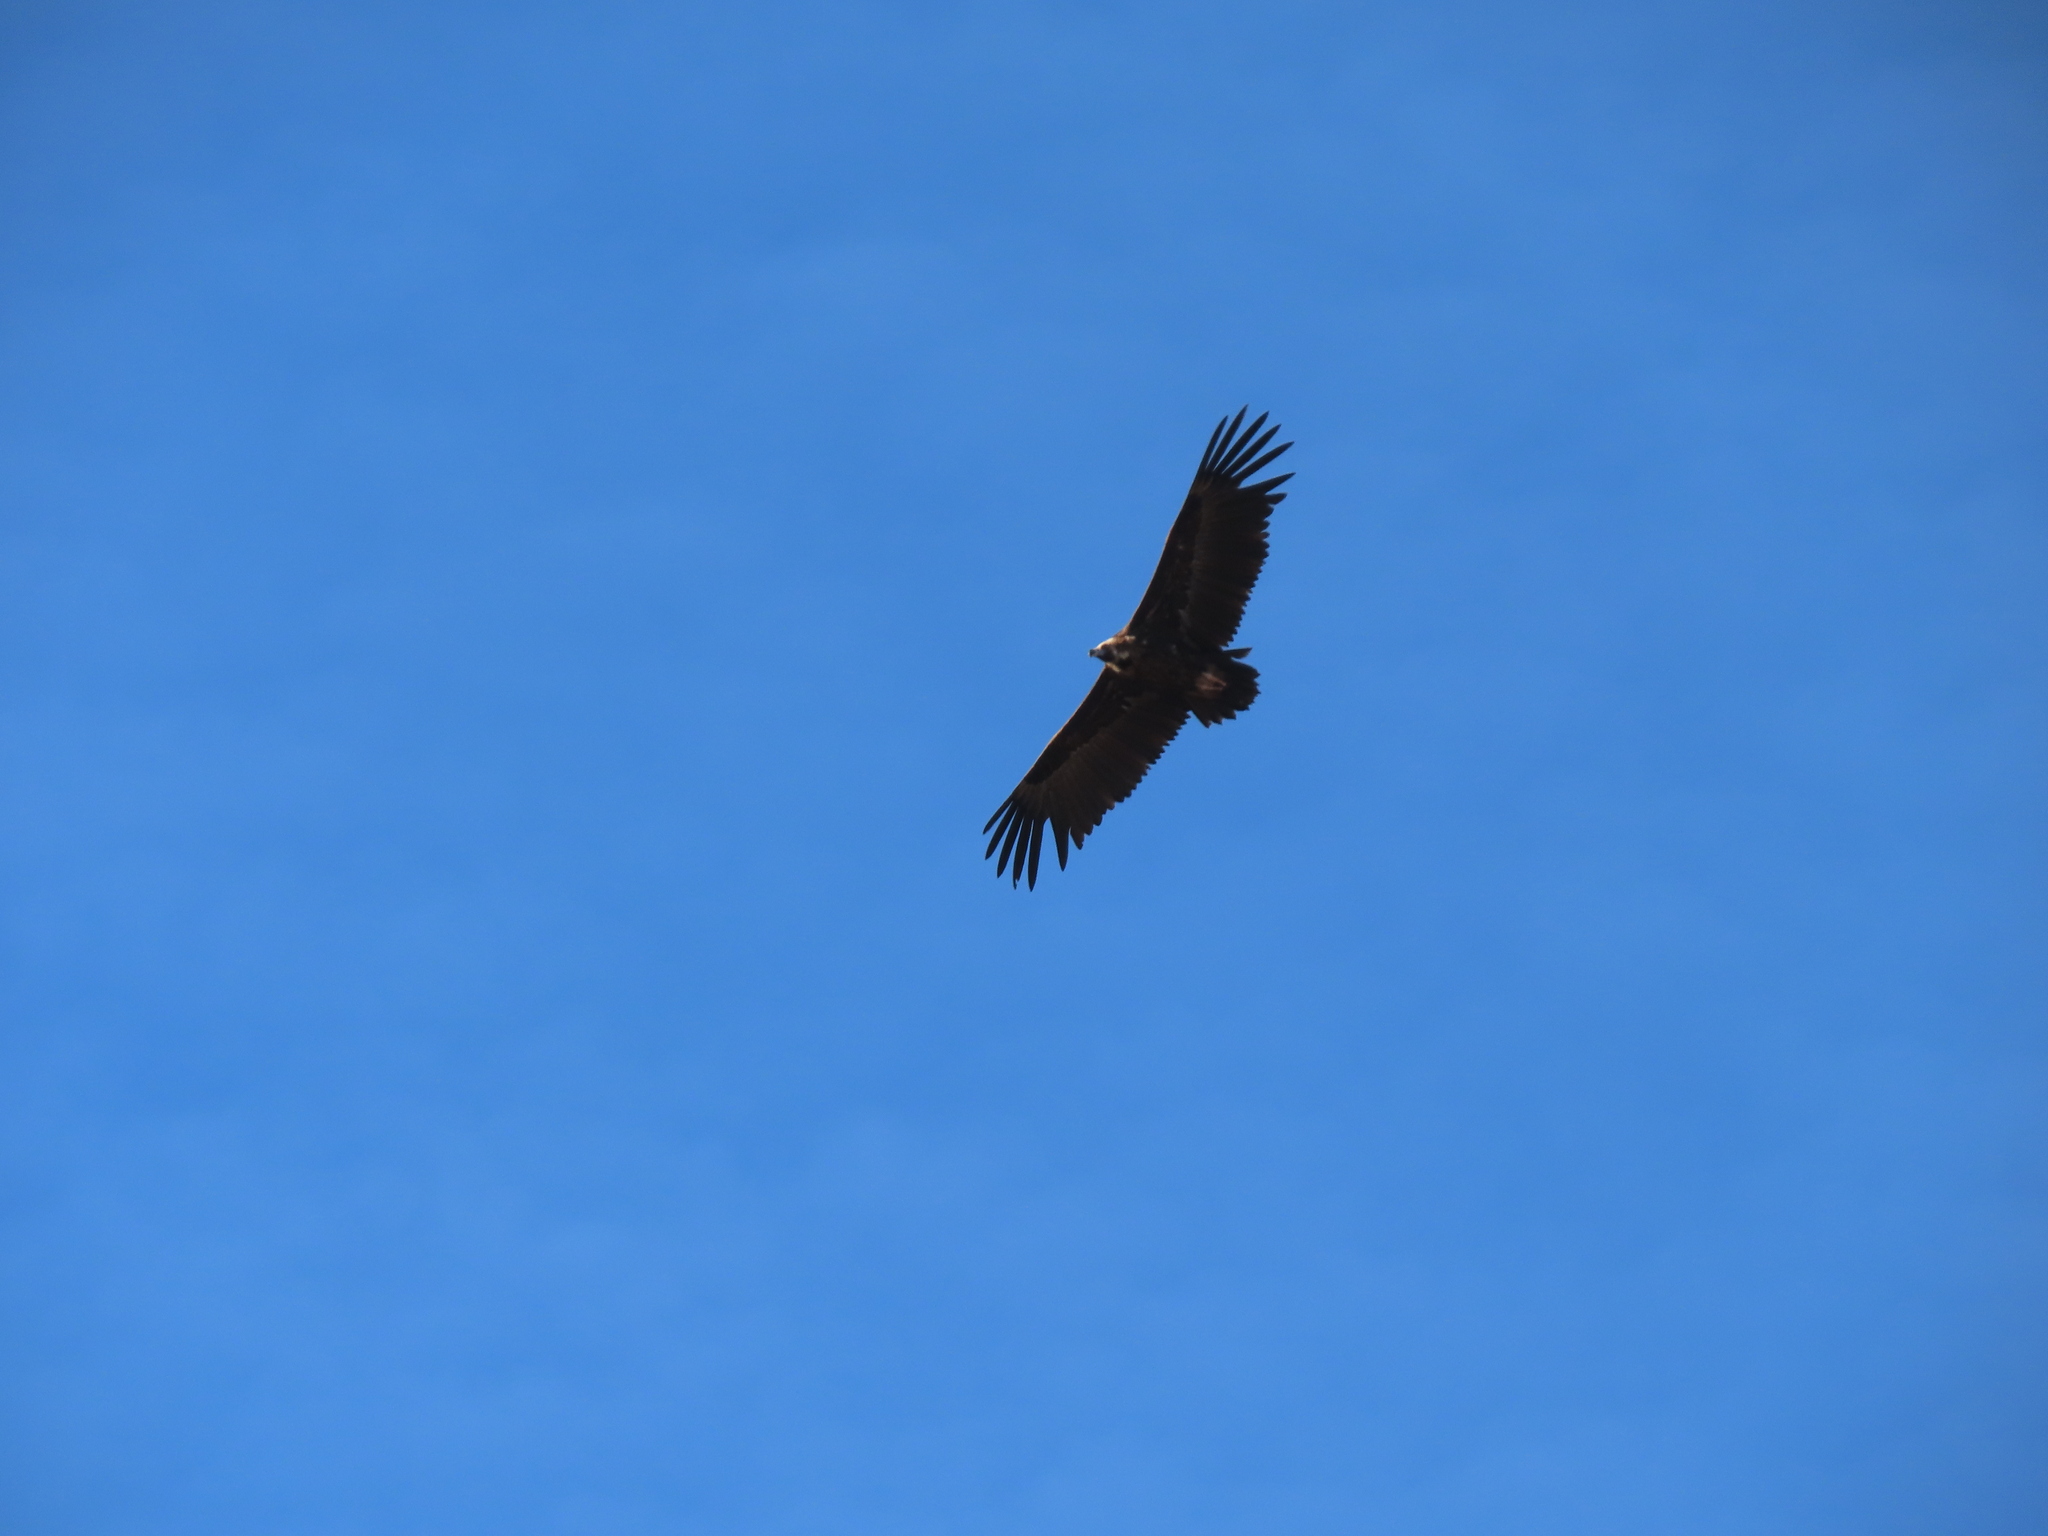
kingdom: Animalia
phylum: Chordata
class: Aves
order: Accipitriformes
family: Accipitridae
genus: Aegypius
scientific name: Aegypius monachus
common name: Cinereous vulture
